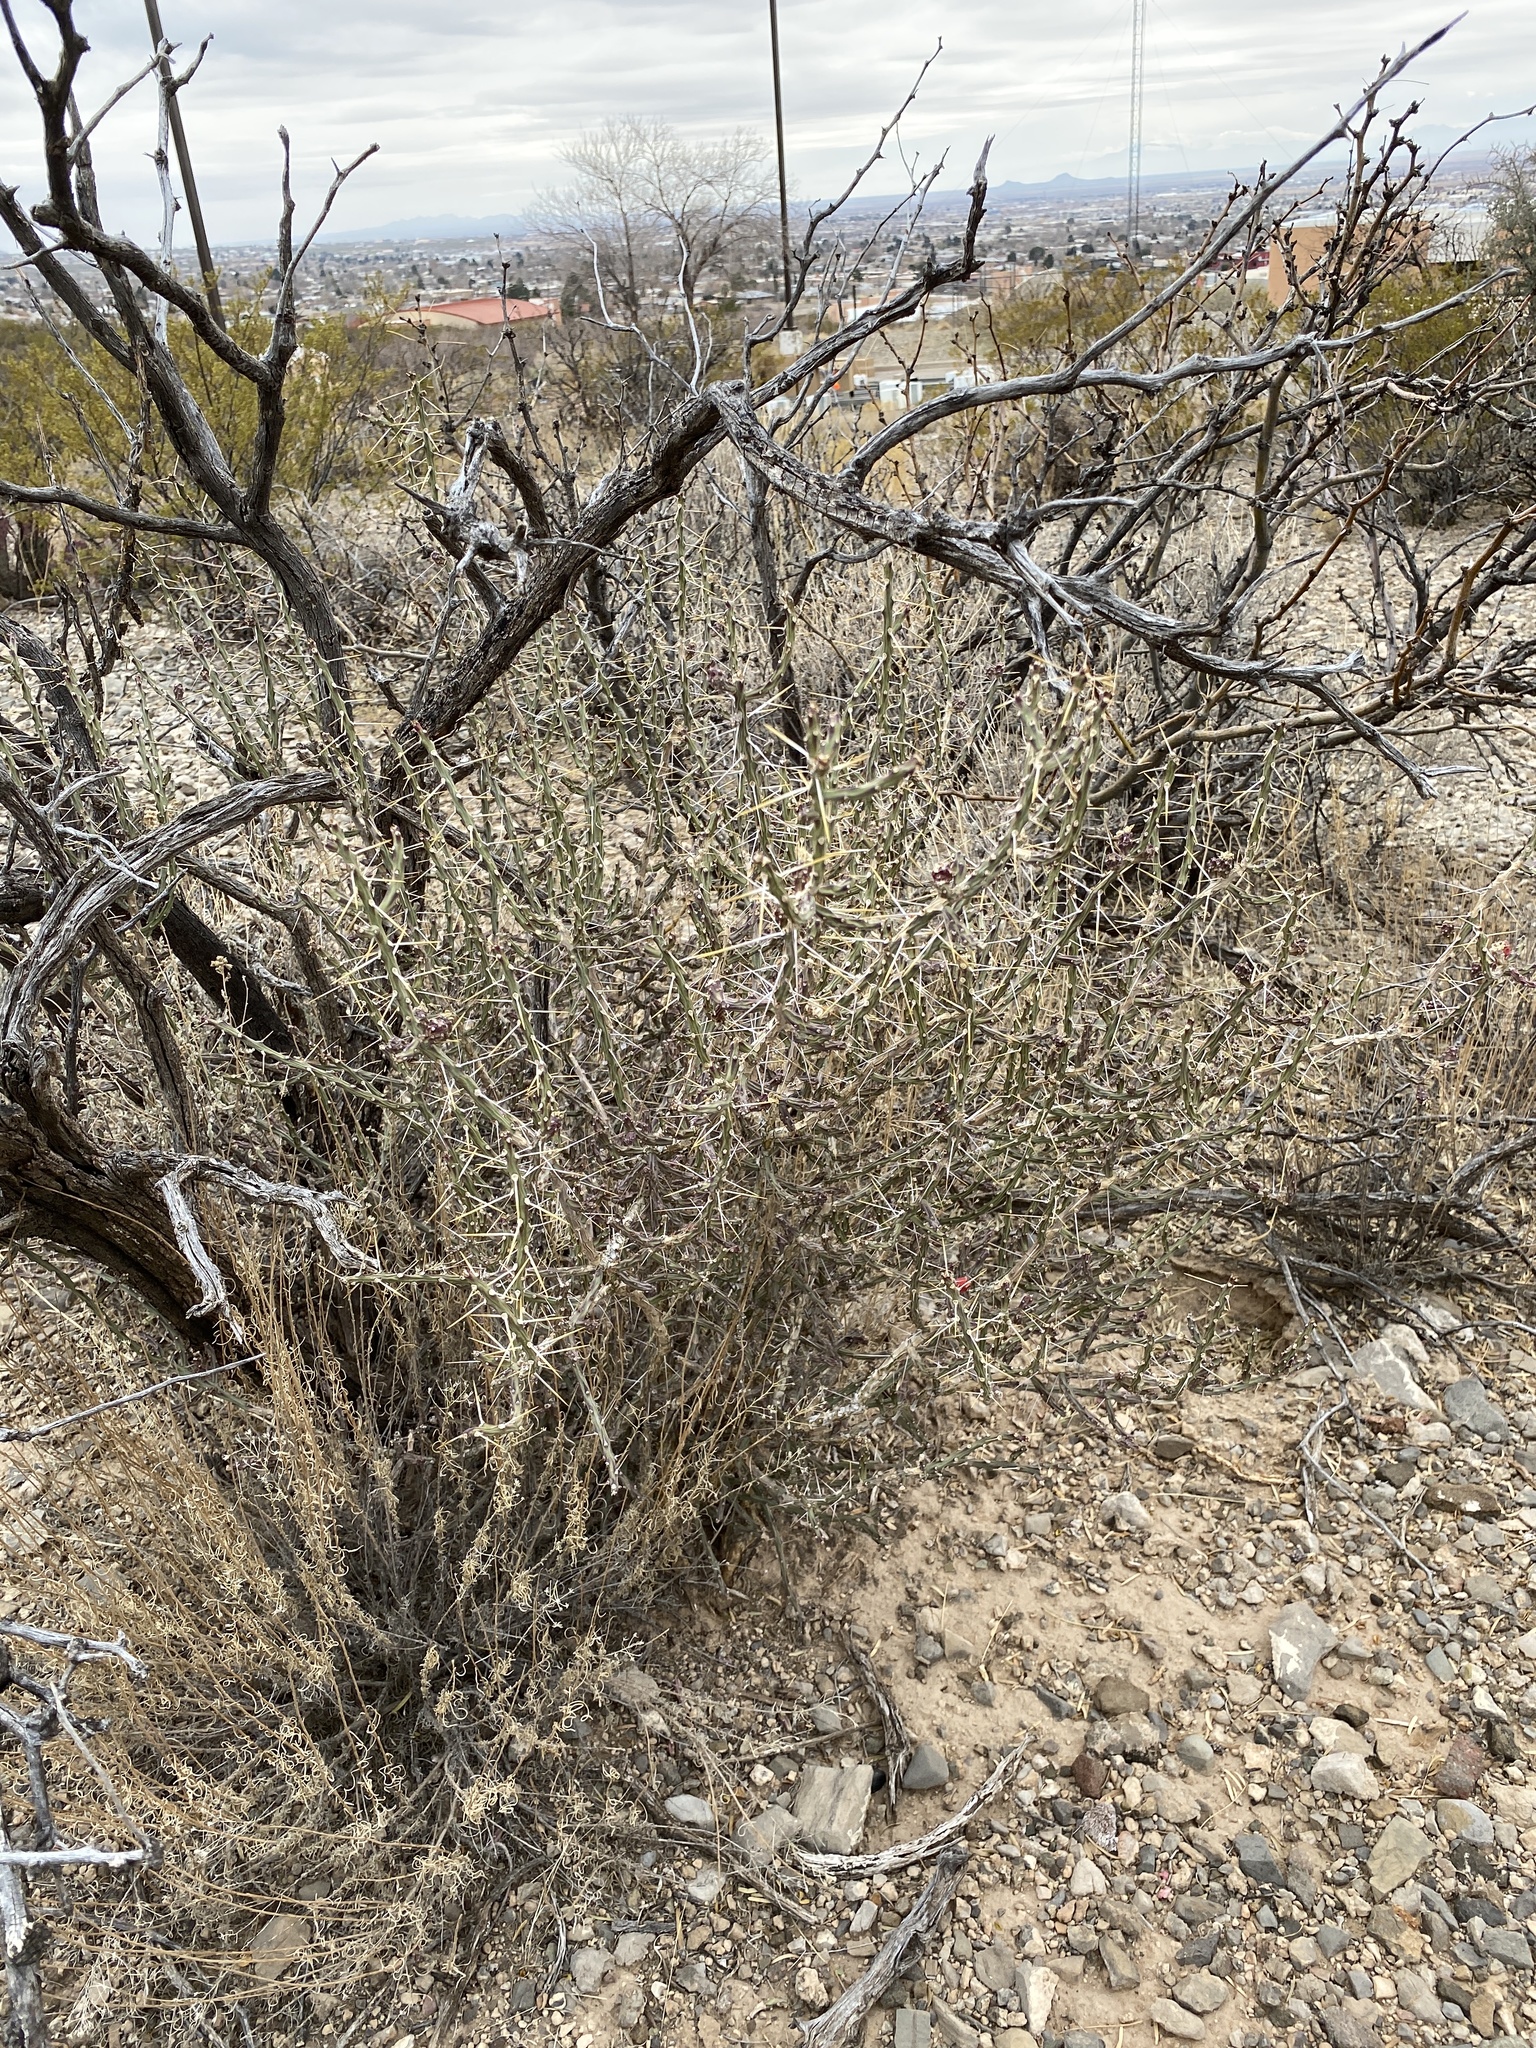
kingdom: Plantae
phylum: Tracheophyta
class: Magnoliopsida
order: Caryophyllales
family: Cactaceae
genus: Cylindropuntia
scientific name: Cylindropuntia leptocaulis
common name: Christmas cactus
